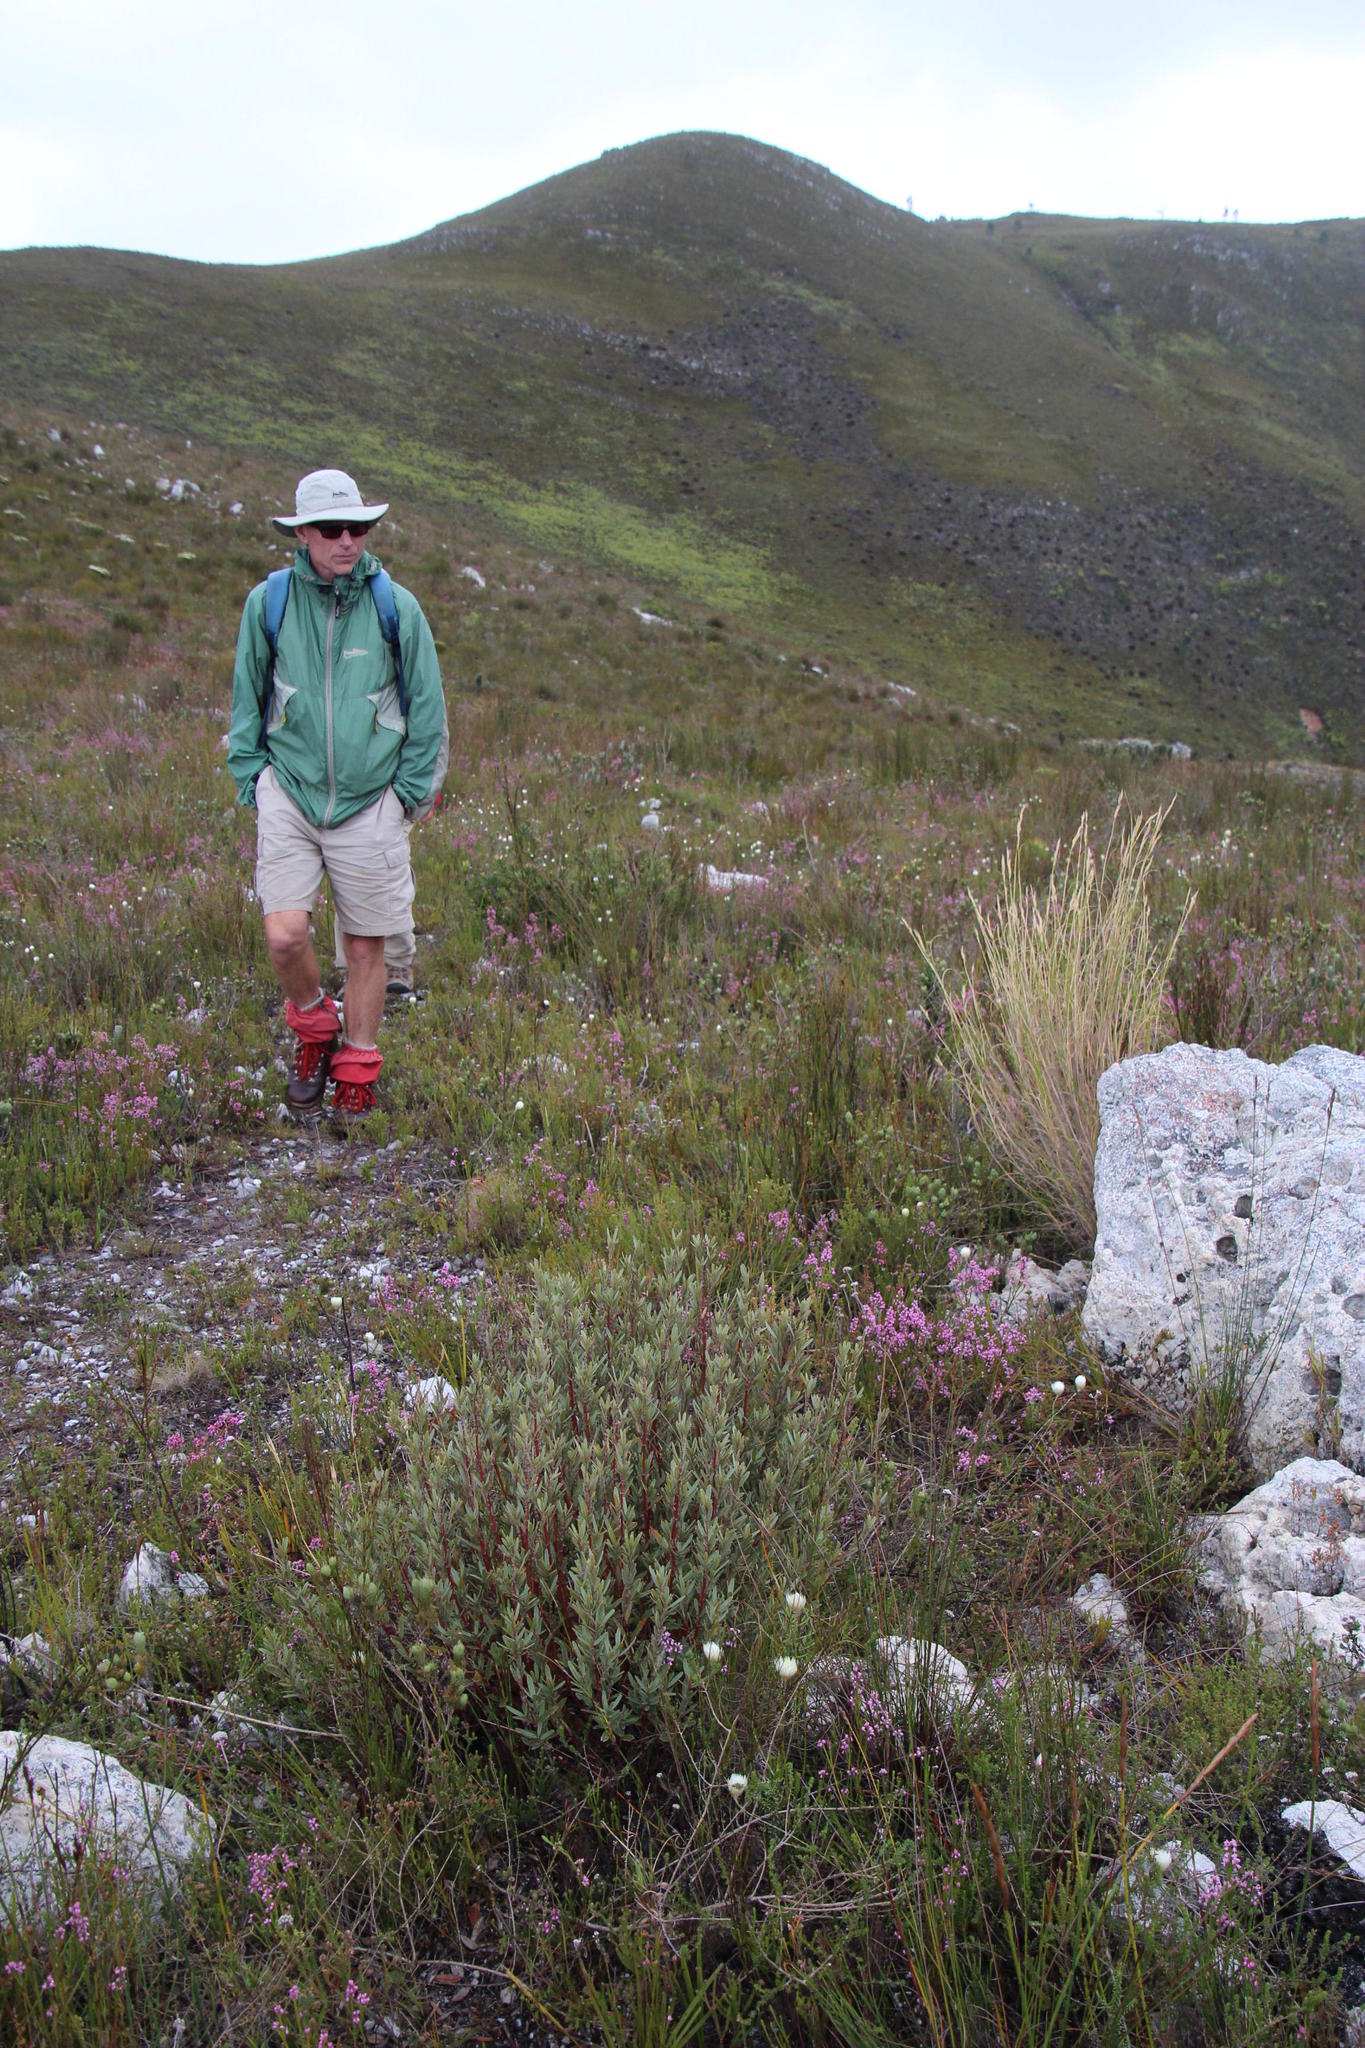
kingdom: Plantae
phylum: Tracheophyta
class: Magnoliopsida
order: Cornales
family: Grubbiaceae
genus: Grubbia
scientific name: Grubbia tomentosa
